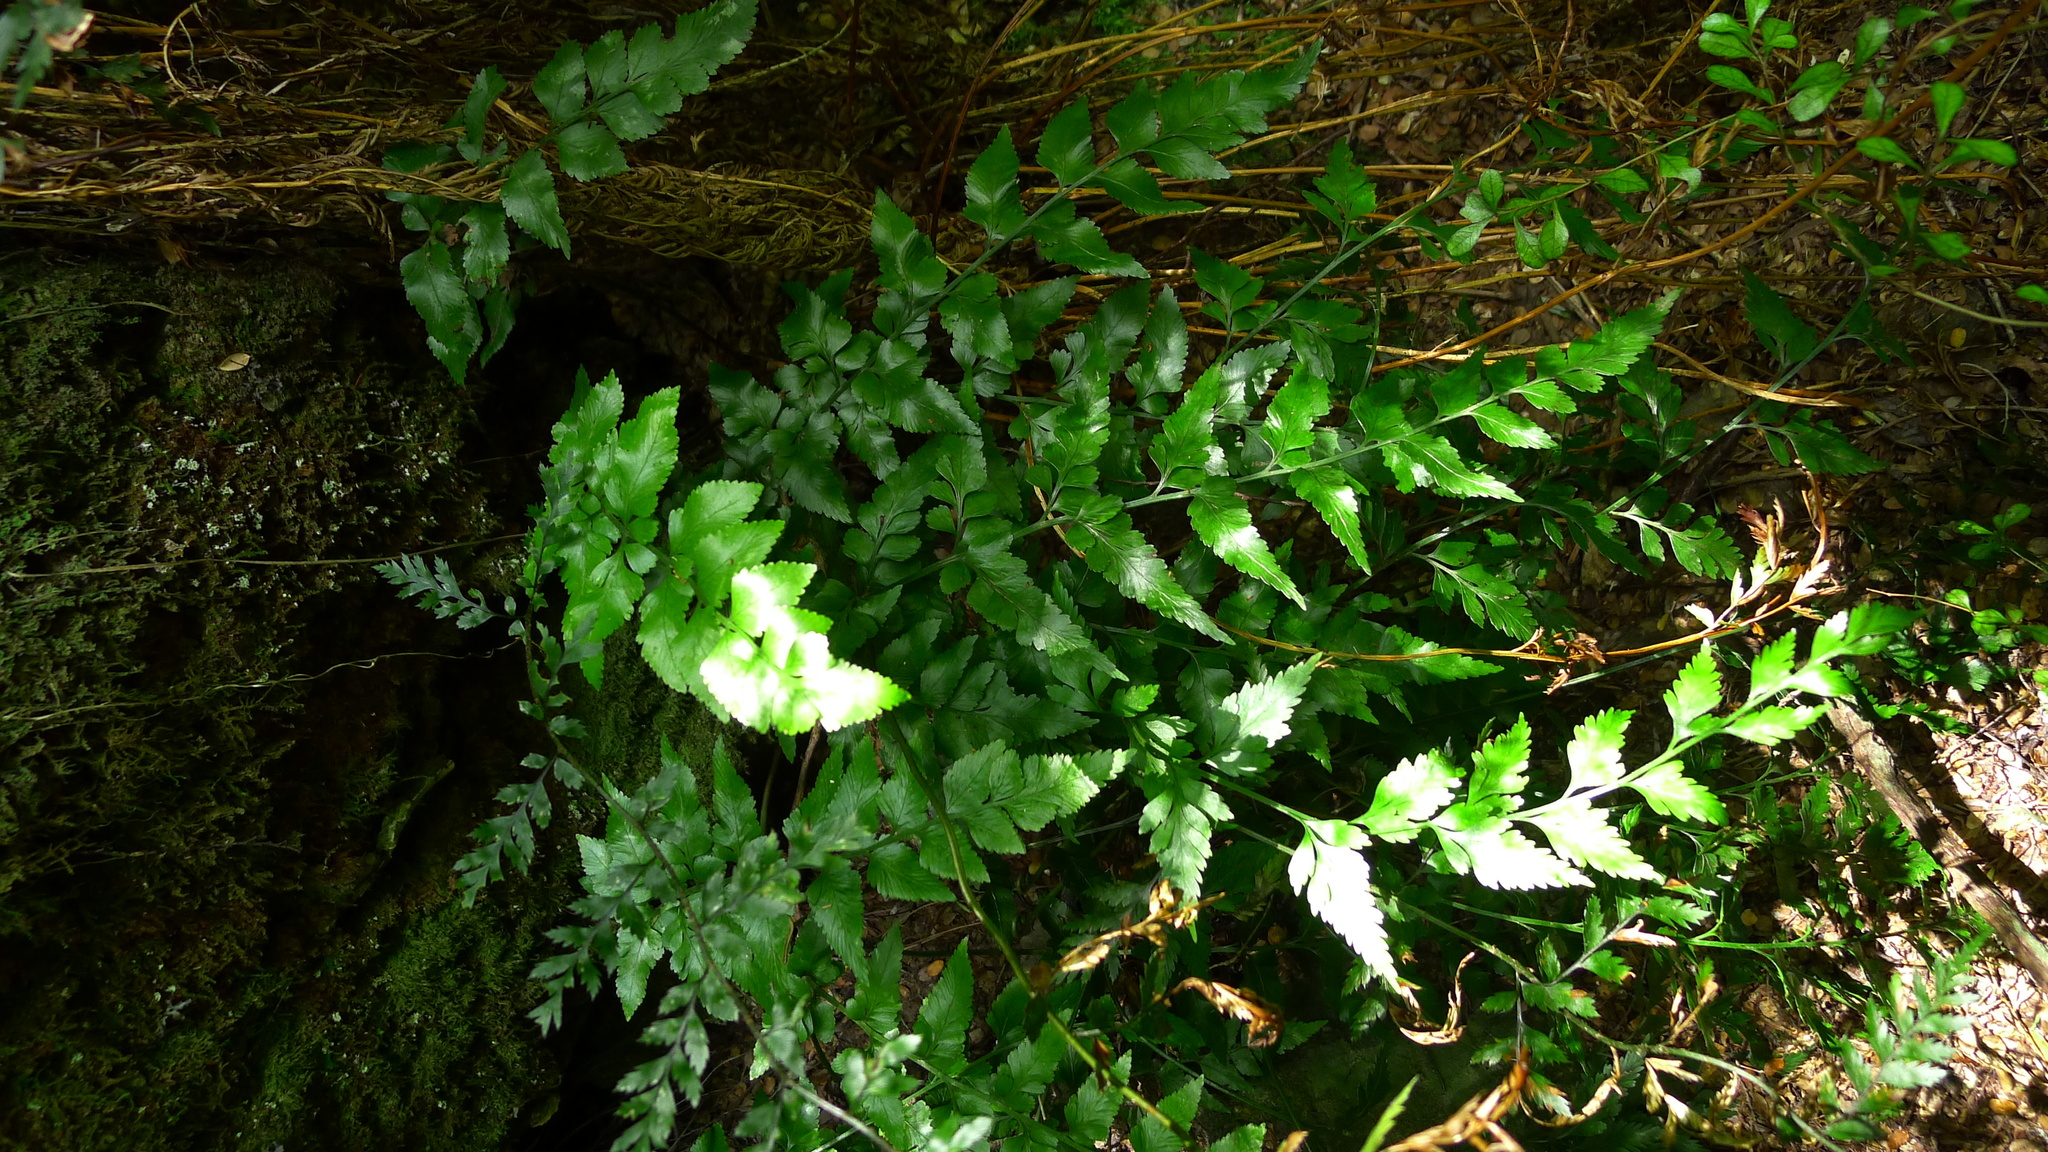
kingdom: Plantae
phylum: Tracheophyta
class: Polypodiopsida
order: Polypodiales
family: Aspleniaceae
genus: Asplenium
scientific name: Asplenium lyallii
